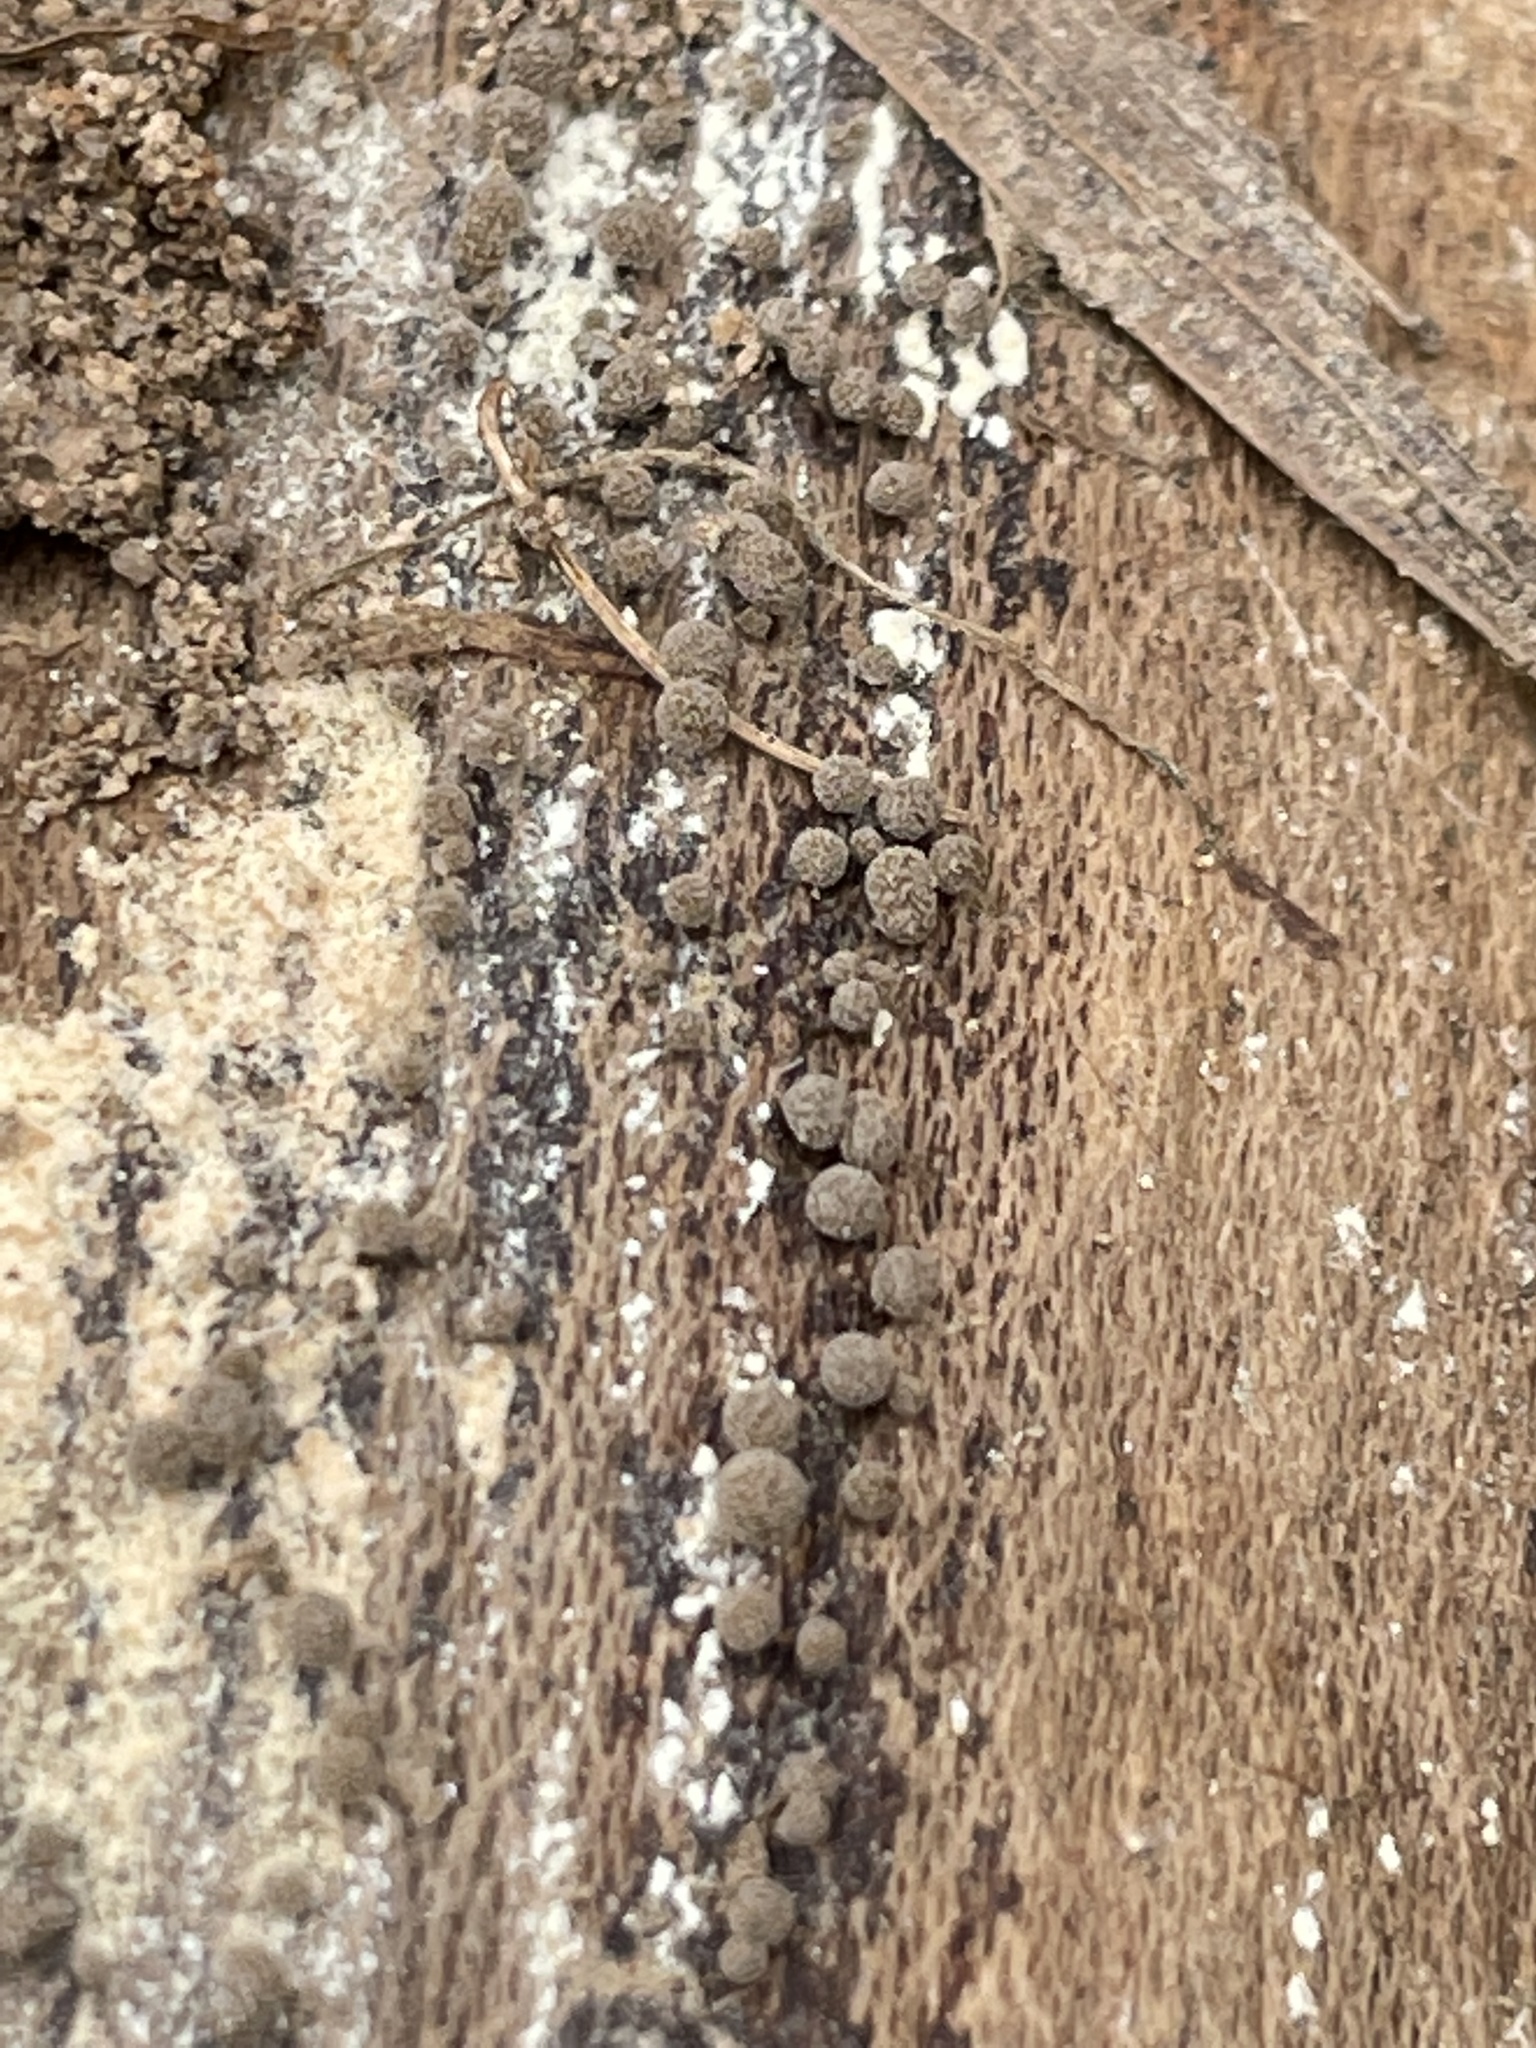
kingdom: Fungi
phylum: Basidiomycota
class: Atractiellomycetes
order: Atractiellales
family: Phleogenaceae
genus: Phleogena
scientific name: Phleogena faginea
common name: Fenugreek stalkball
